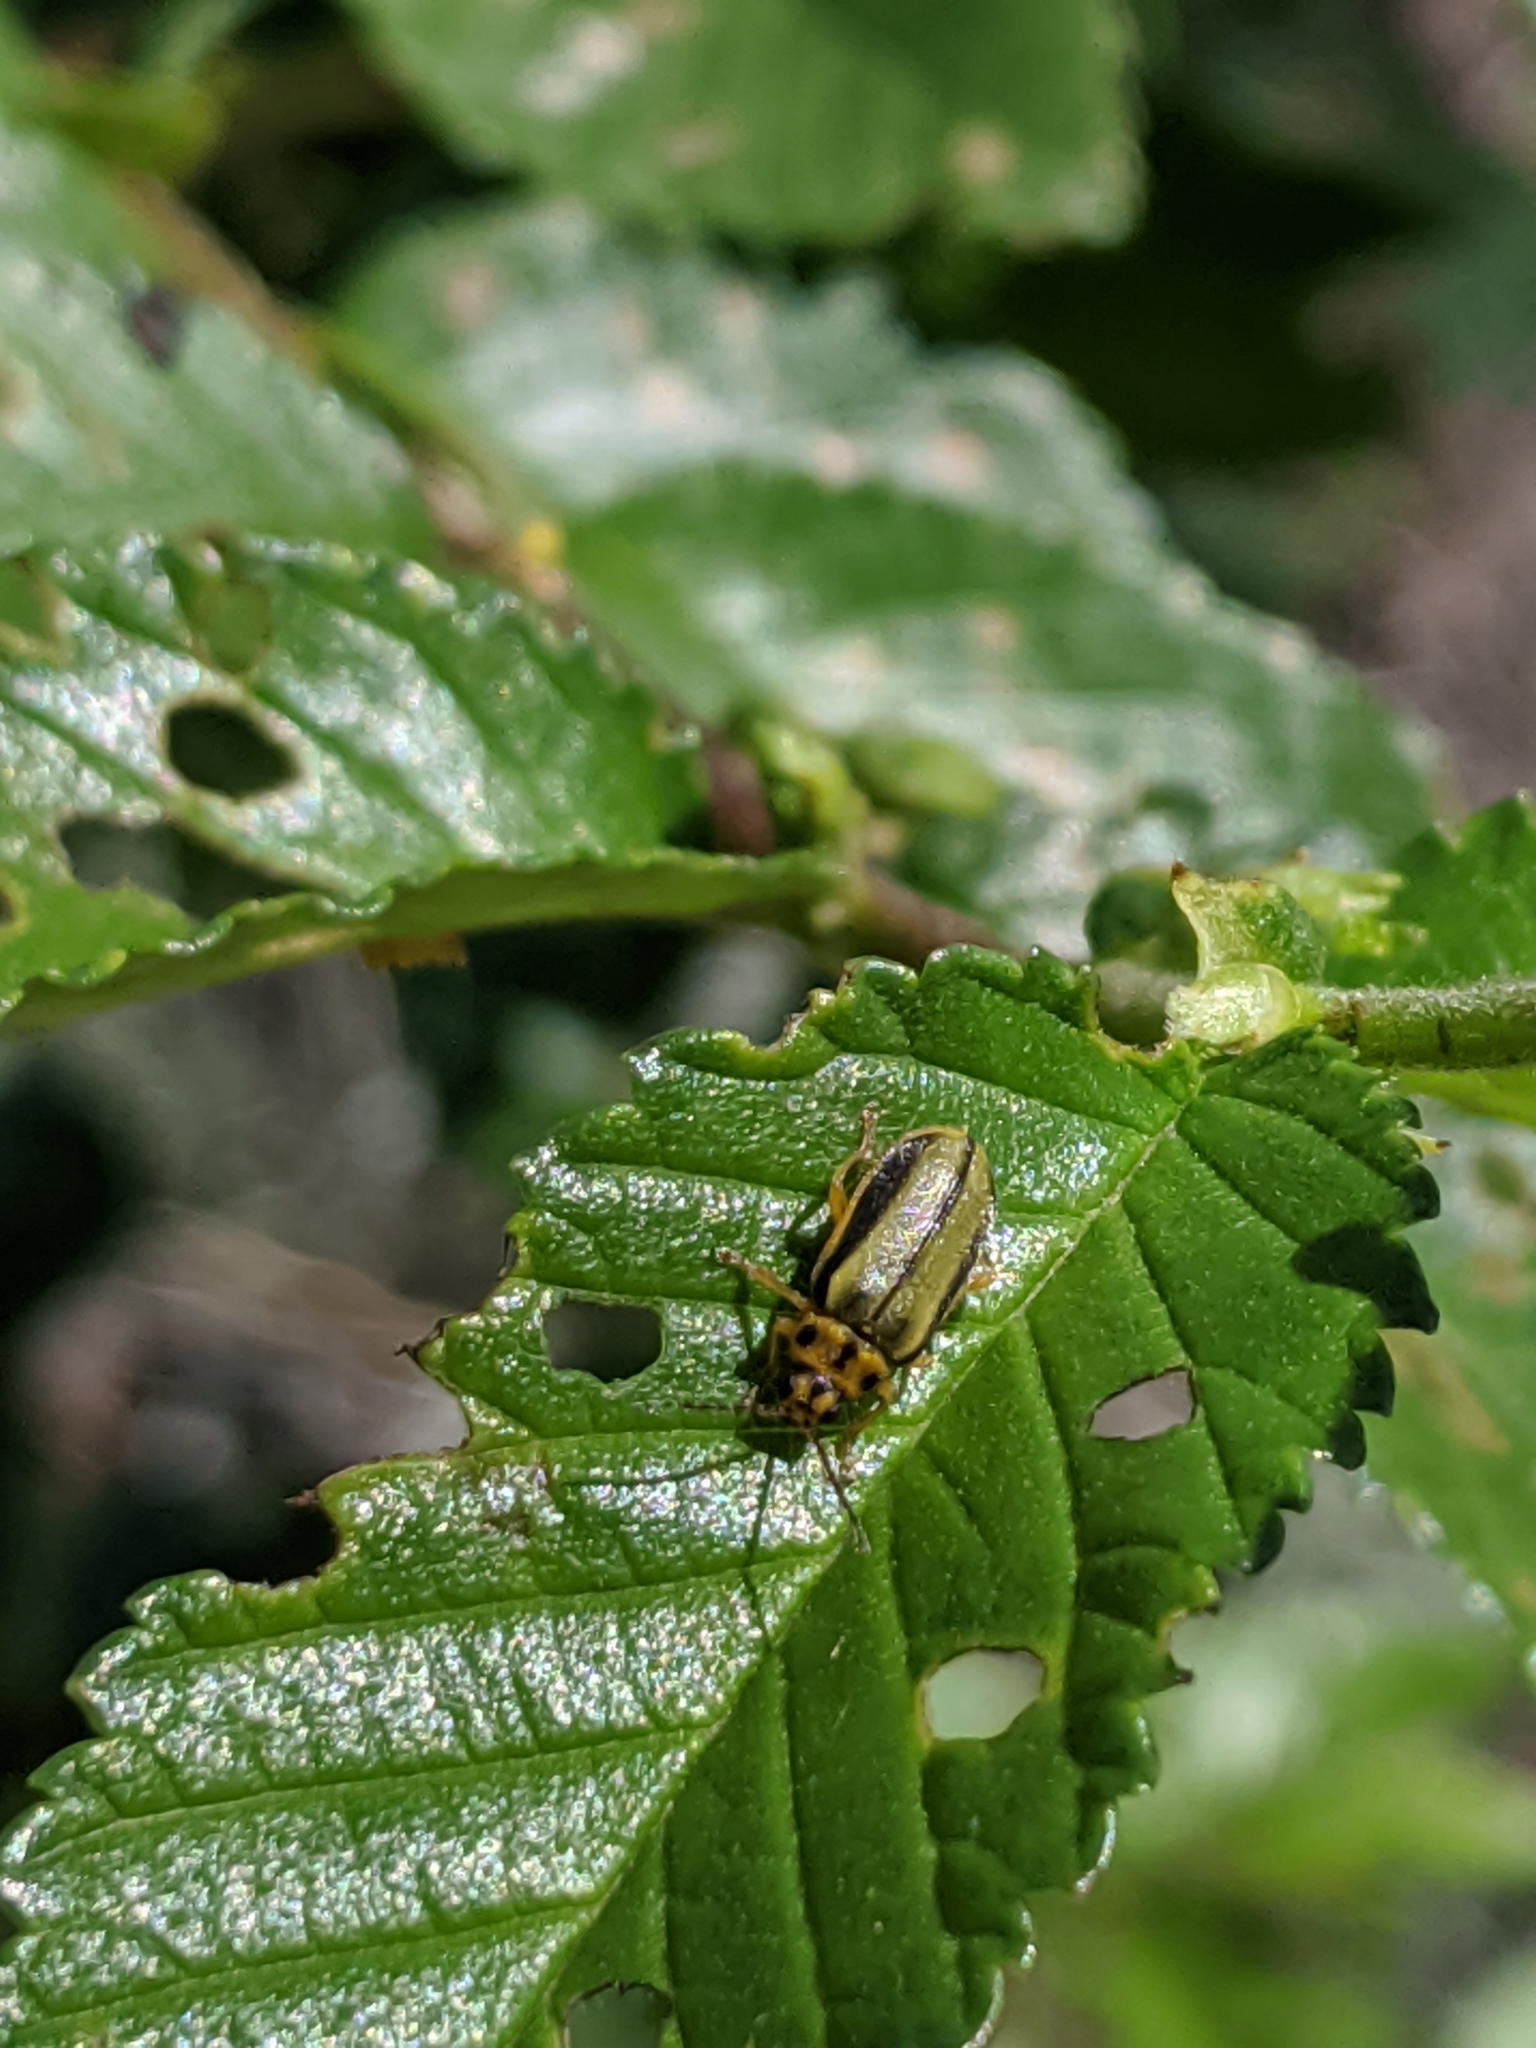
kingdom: Animalia
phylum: Arthropoda
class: Insecta
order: Coleoptera
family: Chrysomelidae
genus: Xanthogaleruca
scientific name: Xanthogaleruca luteola
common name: Elm leaf beetle
